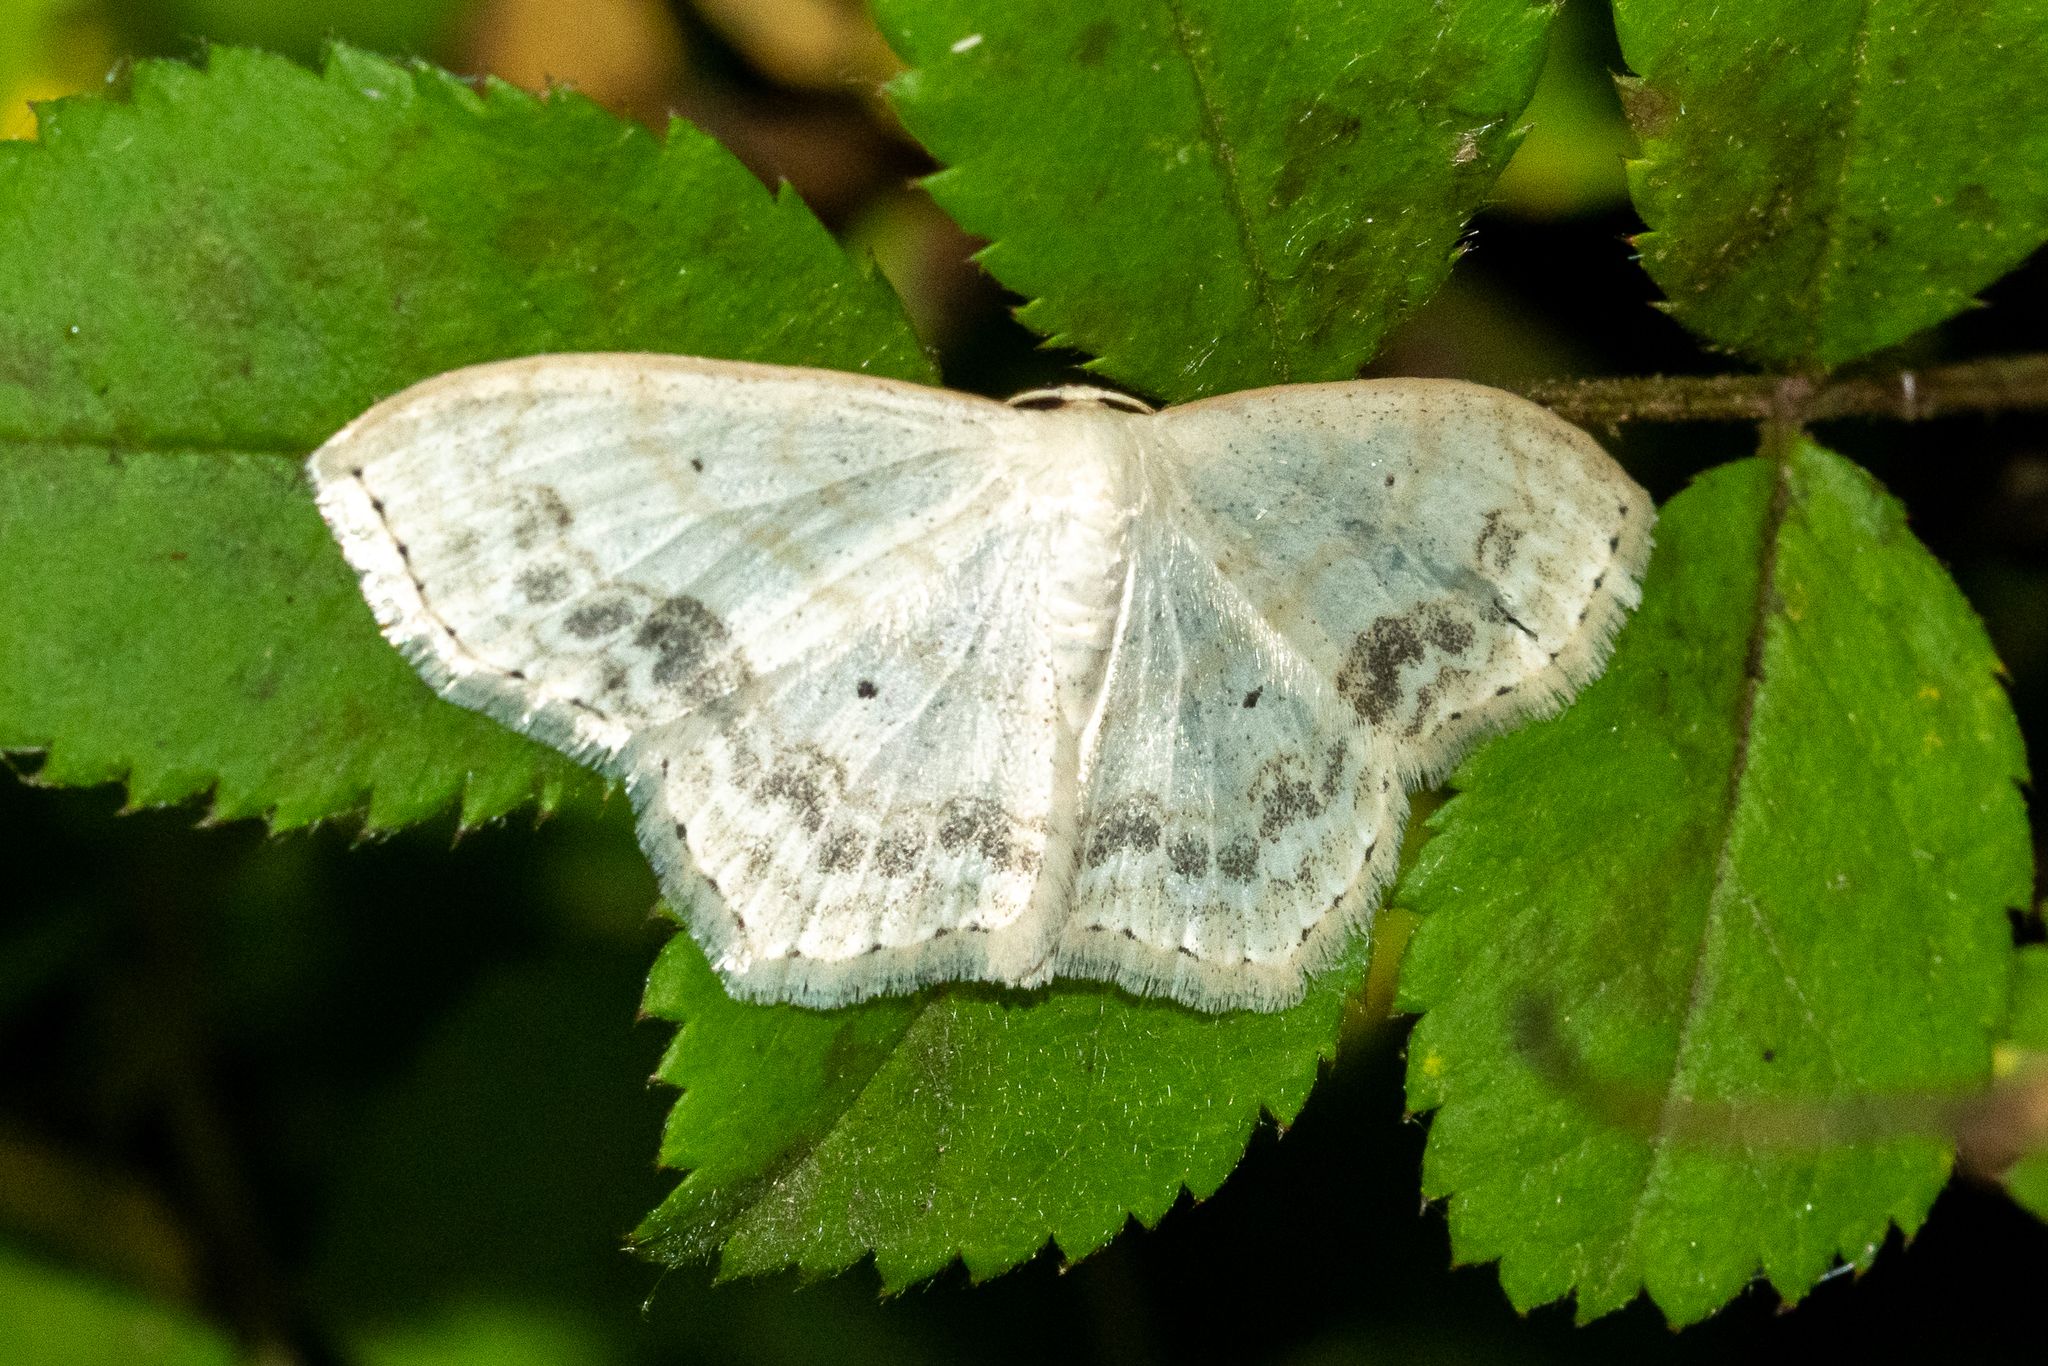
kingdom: Animalia
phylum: Arthropoda
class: Insecta
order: Lepidoptera
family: Geometridae
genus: Scopula
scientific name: Scopula limboundata
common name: Large lace border
